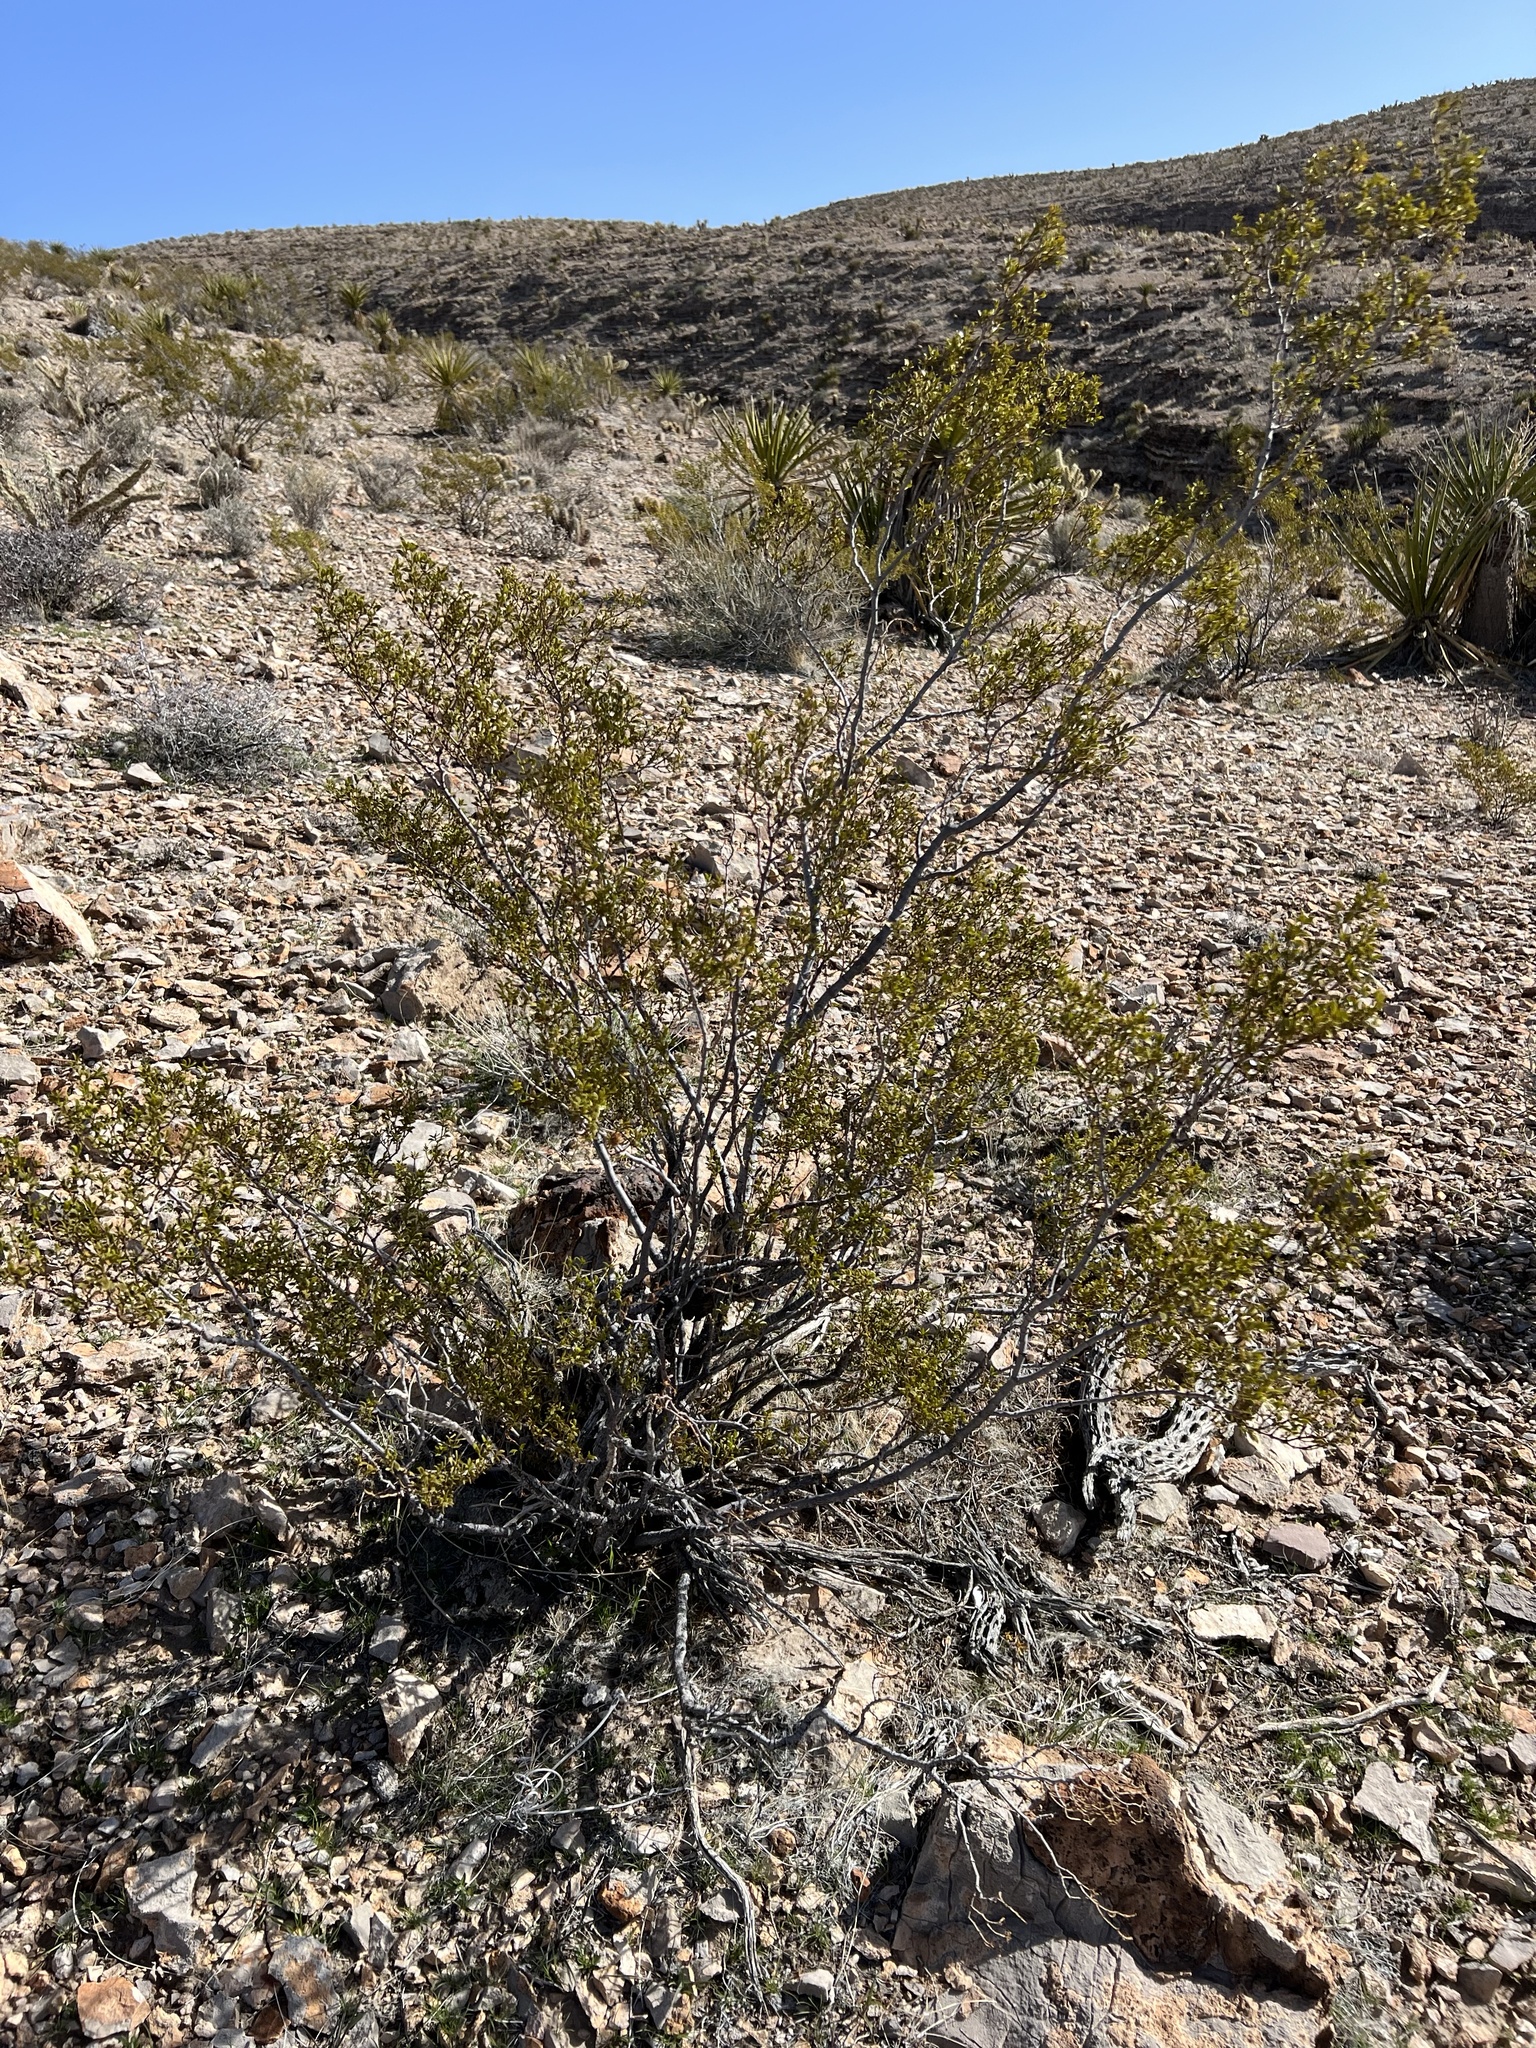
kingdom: Plantae
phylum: Tracheophyta
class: Magnoliopsida
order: Zygophyllales
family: Zygophyllaceae
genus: Larrea
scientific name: Larrea tridentata
